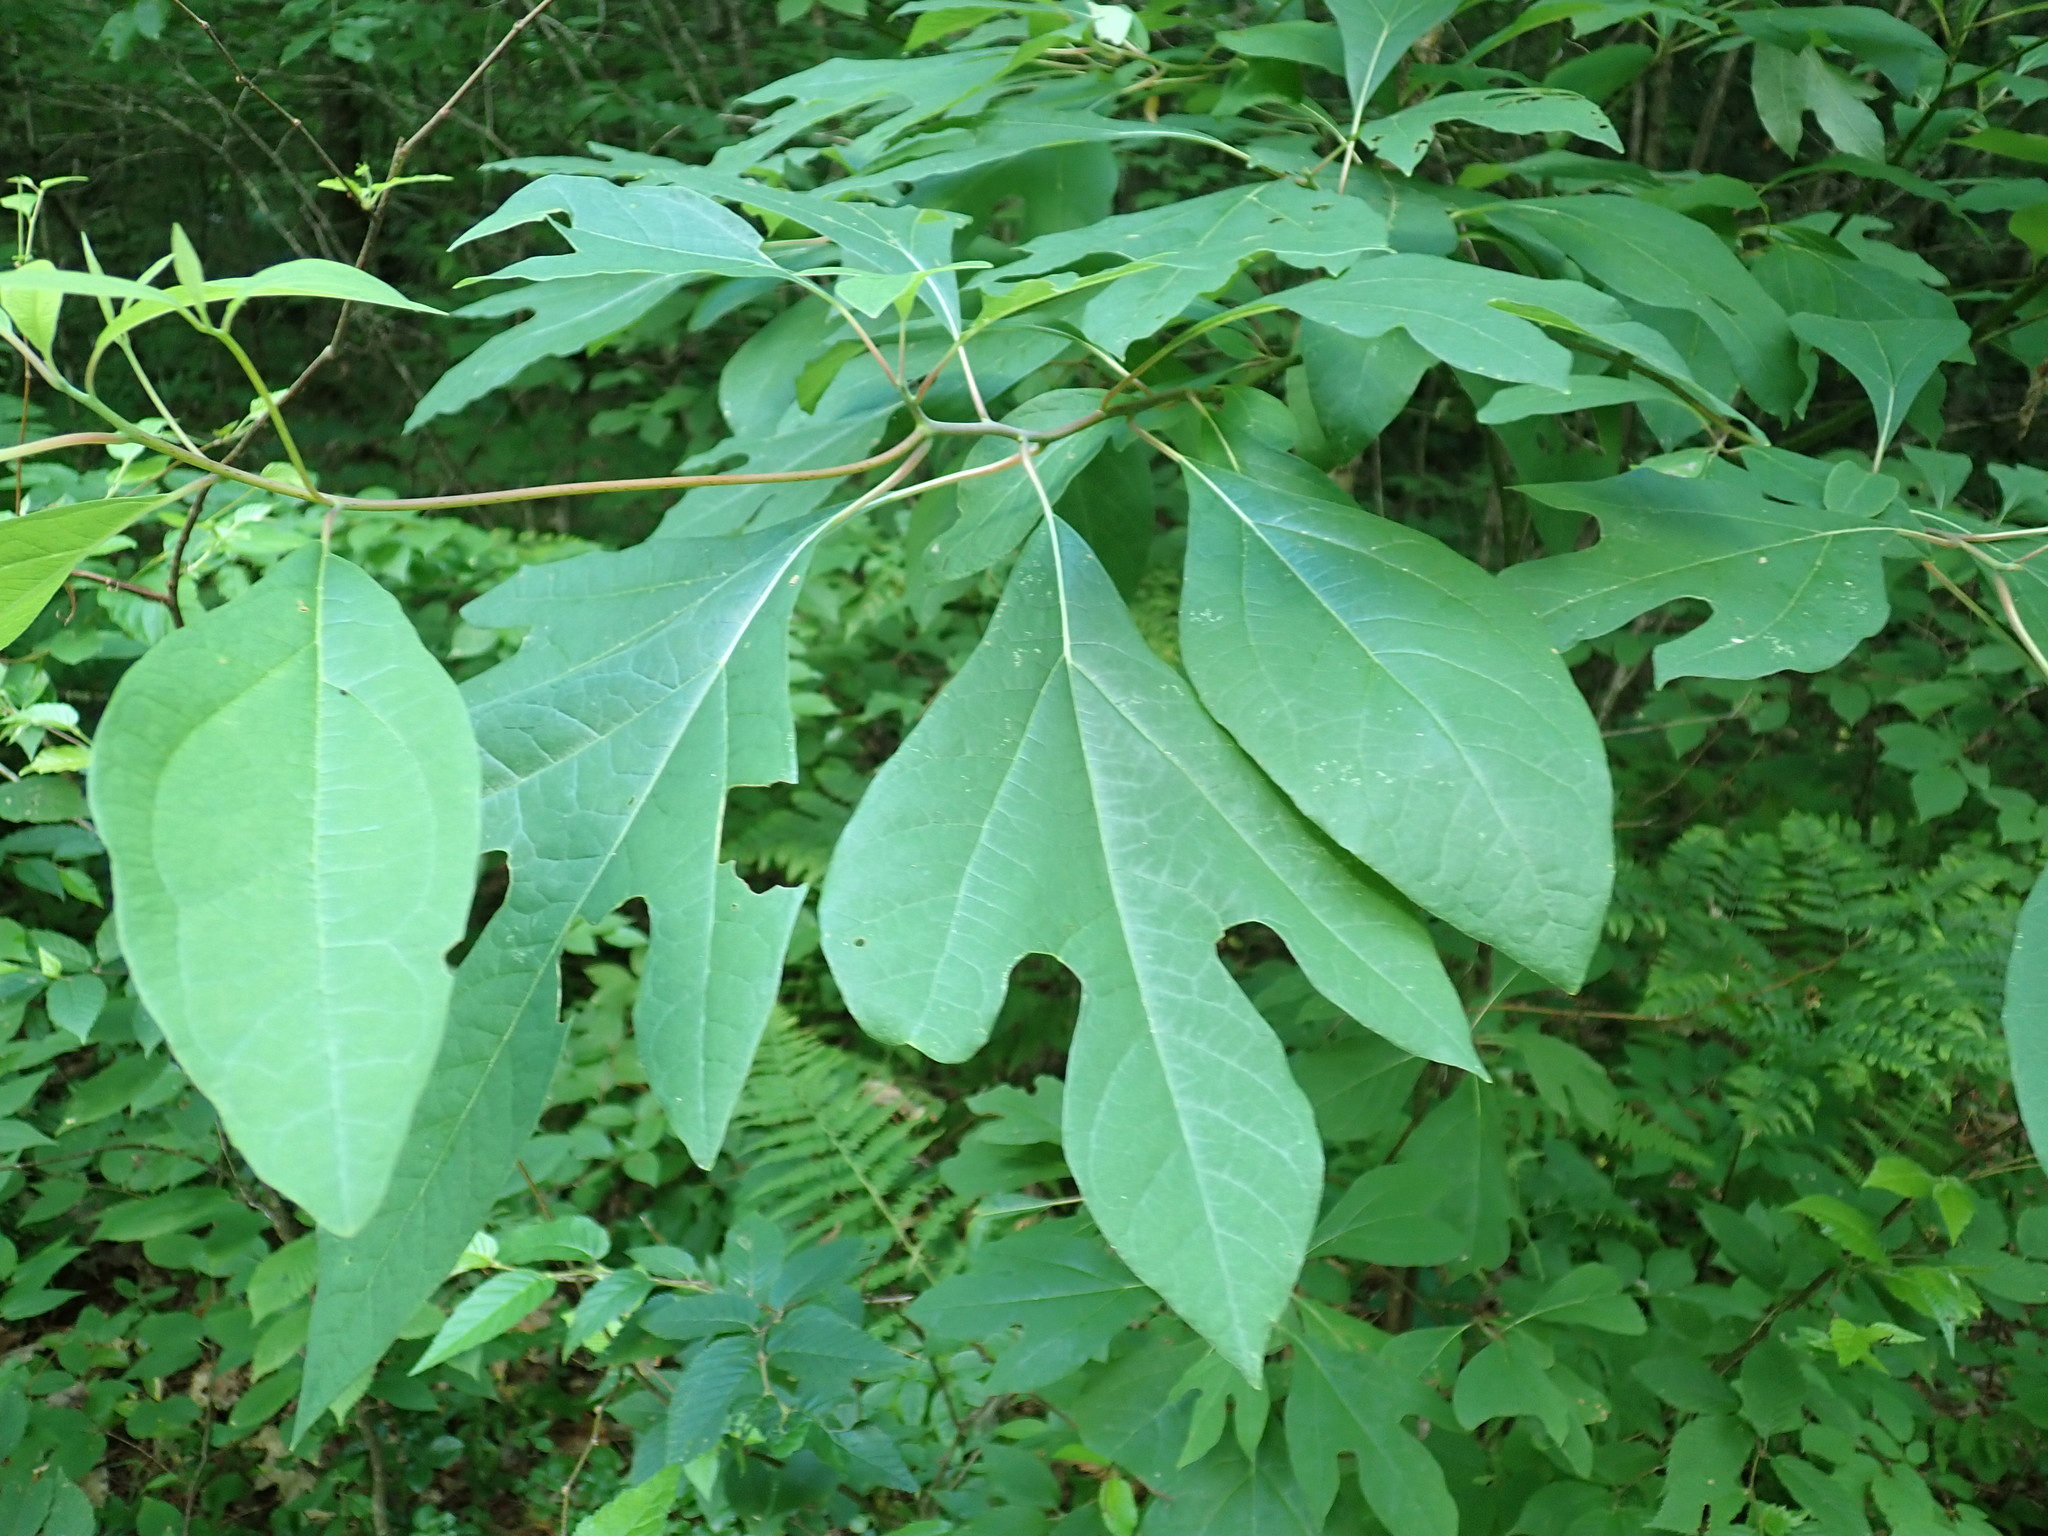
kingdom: Plantae
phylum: Tracheophyta
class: Magnoliopsida
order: Laurales
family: Lauraceae
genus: Sassafras
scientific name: Sassafras albidum
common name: Sassafras
